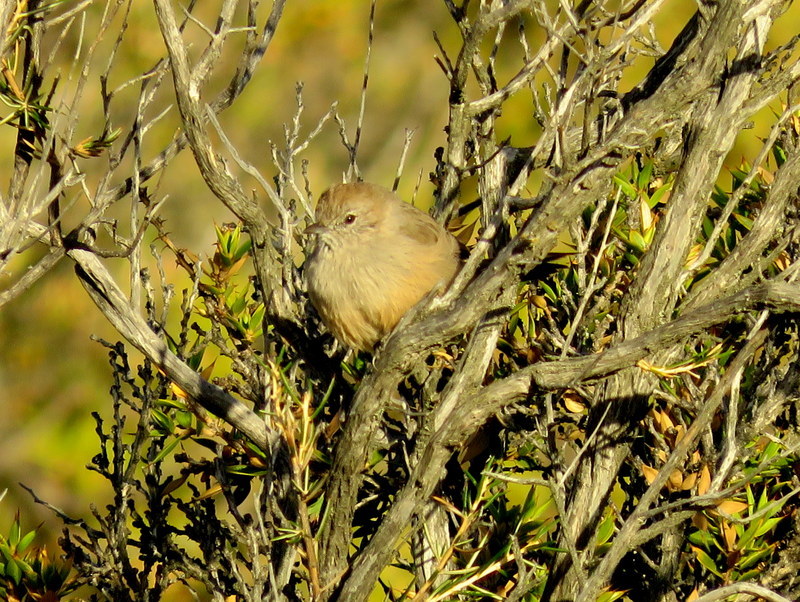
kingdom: Animalia
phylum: Chordata
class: Aves
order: Passeriformes
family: Furnariidae
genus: Asthenes
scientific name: Asthenes patagonica
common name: Patagonian canastero
